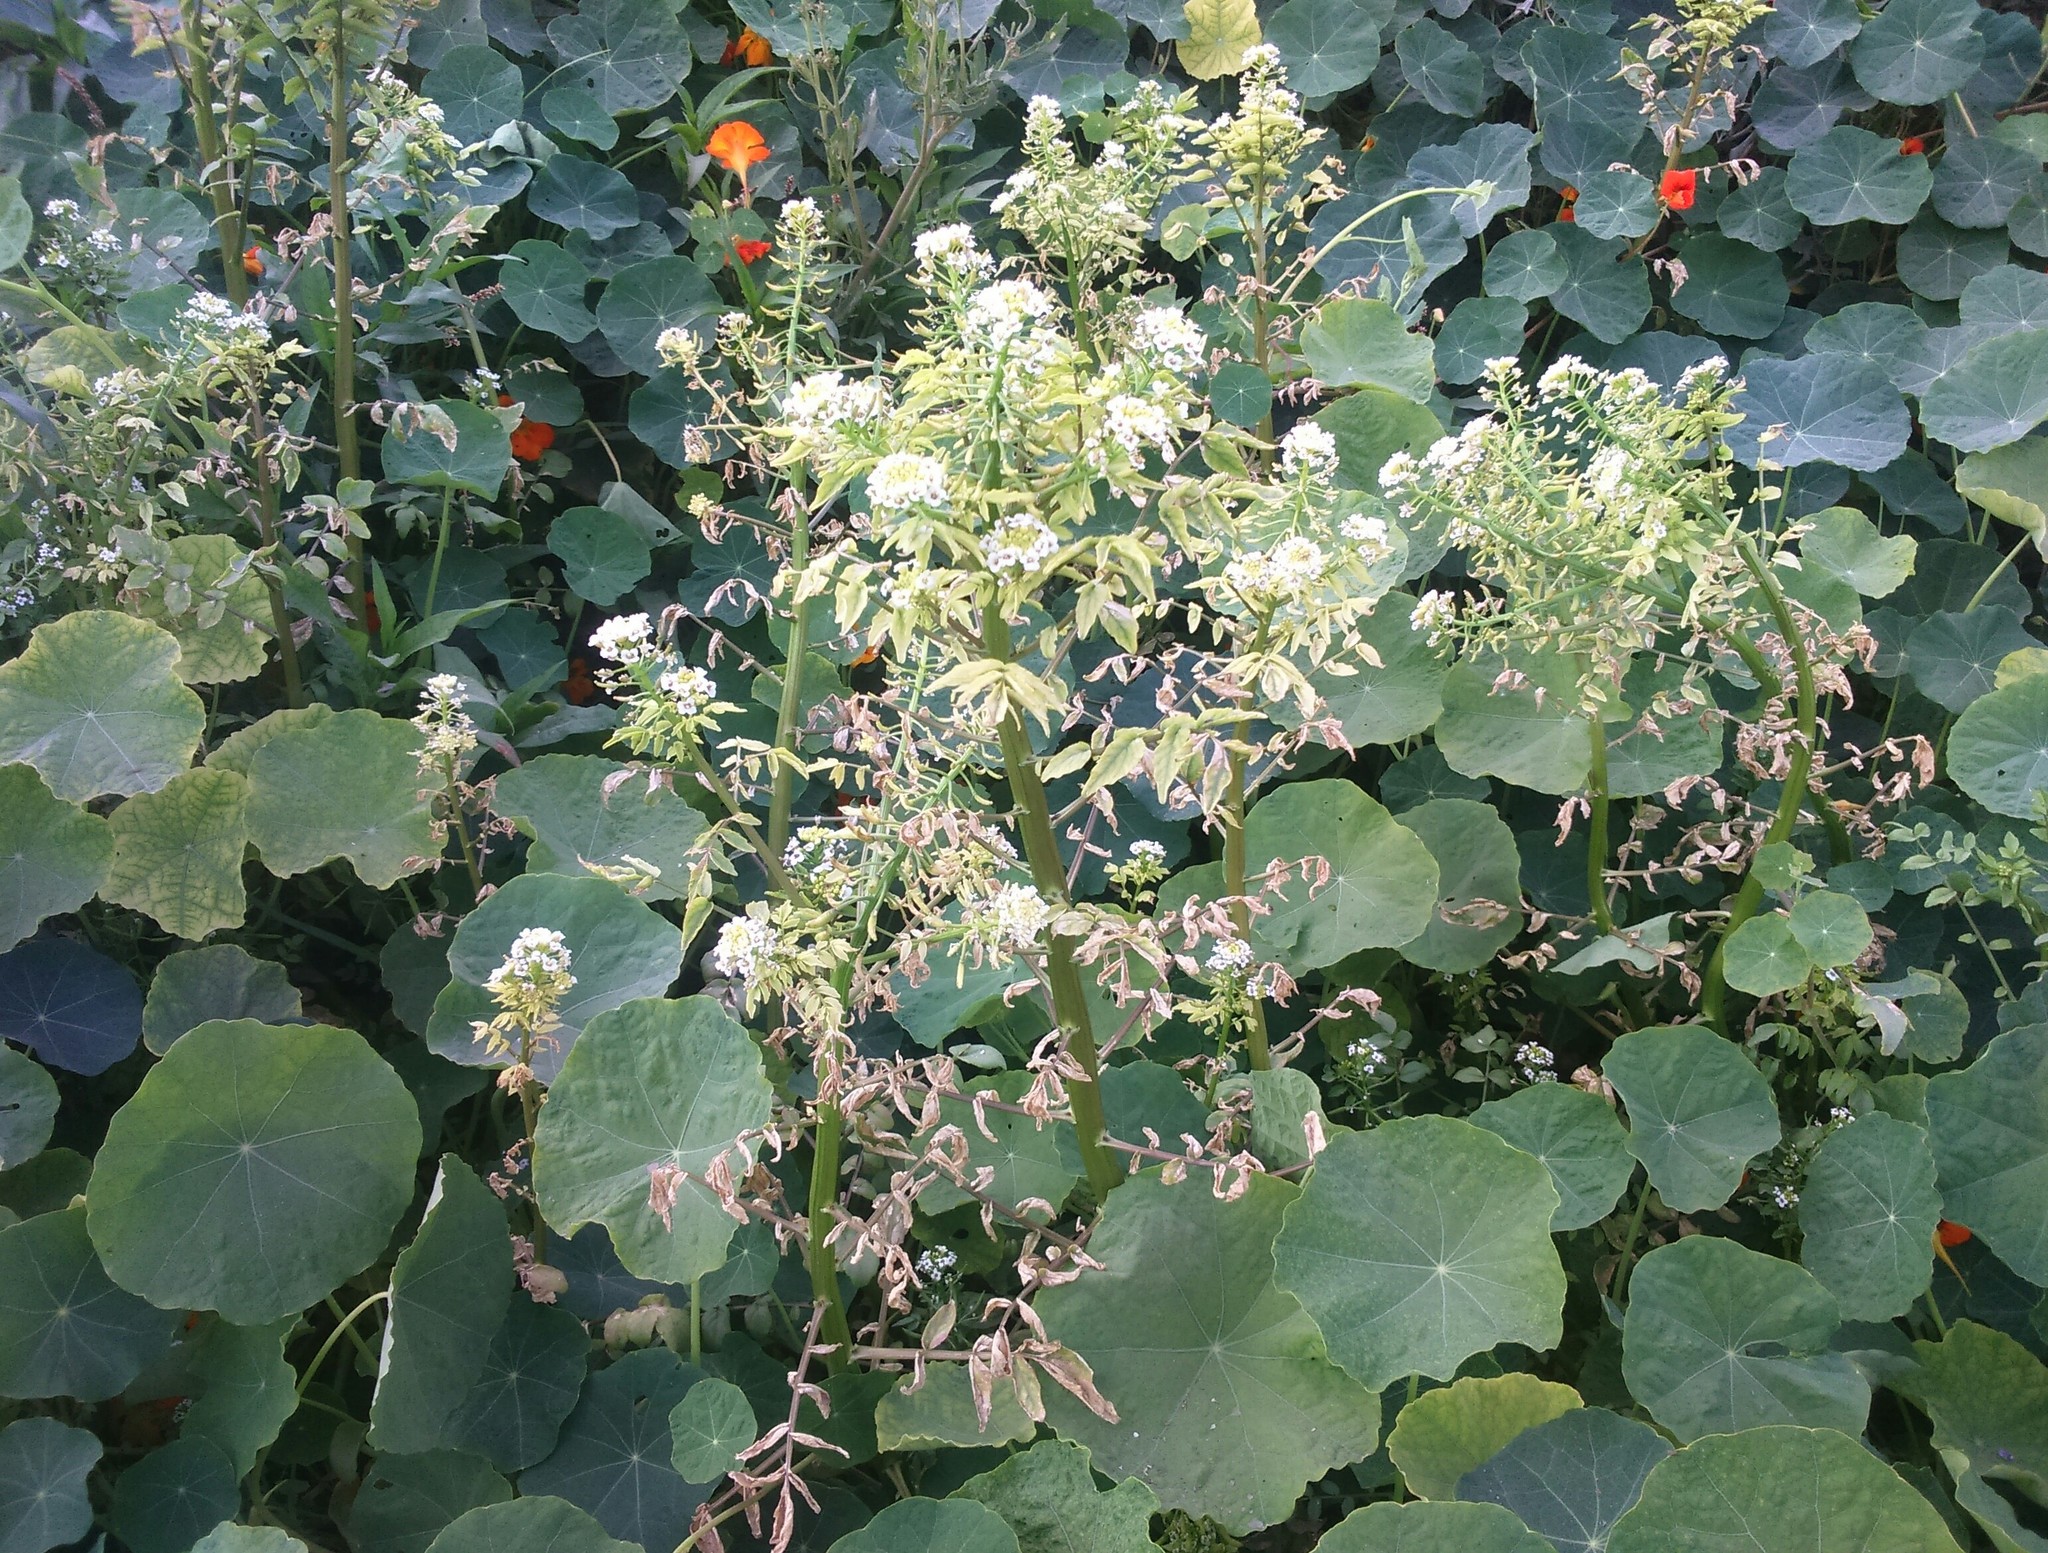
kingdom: Plantae
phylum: Tracheophyta
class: Magnoliopsida
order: Brassicales
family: Brassicaceae
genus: Nasturtium
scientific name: Nasturtium officinale
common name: Watercress
